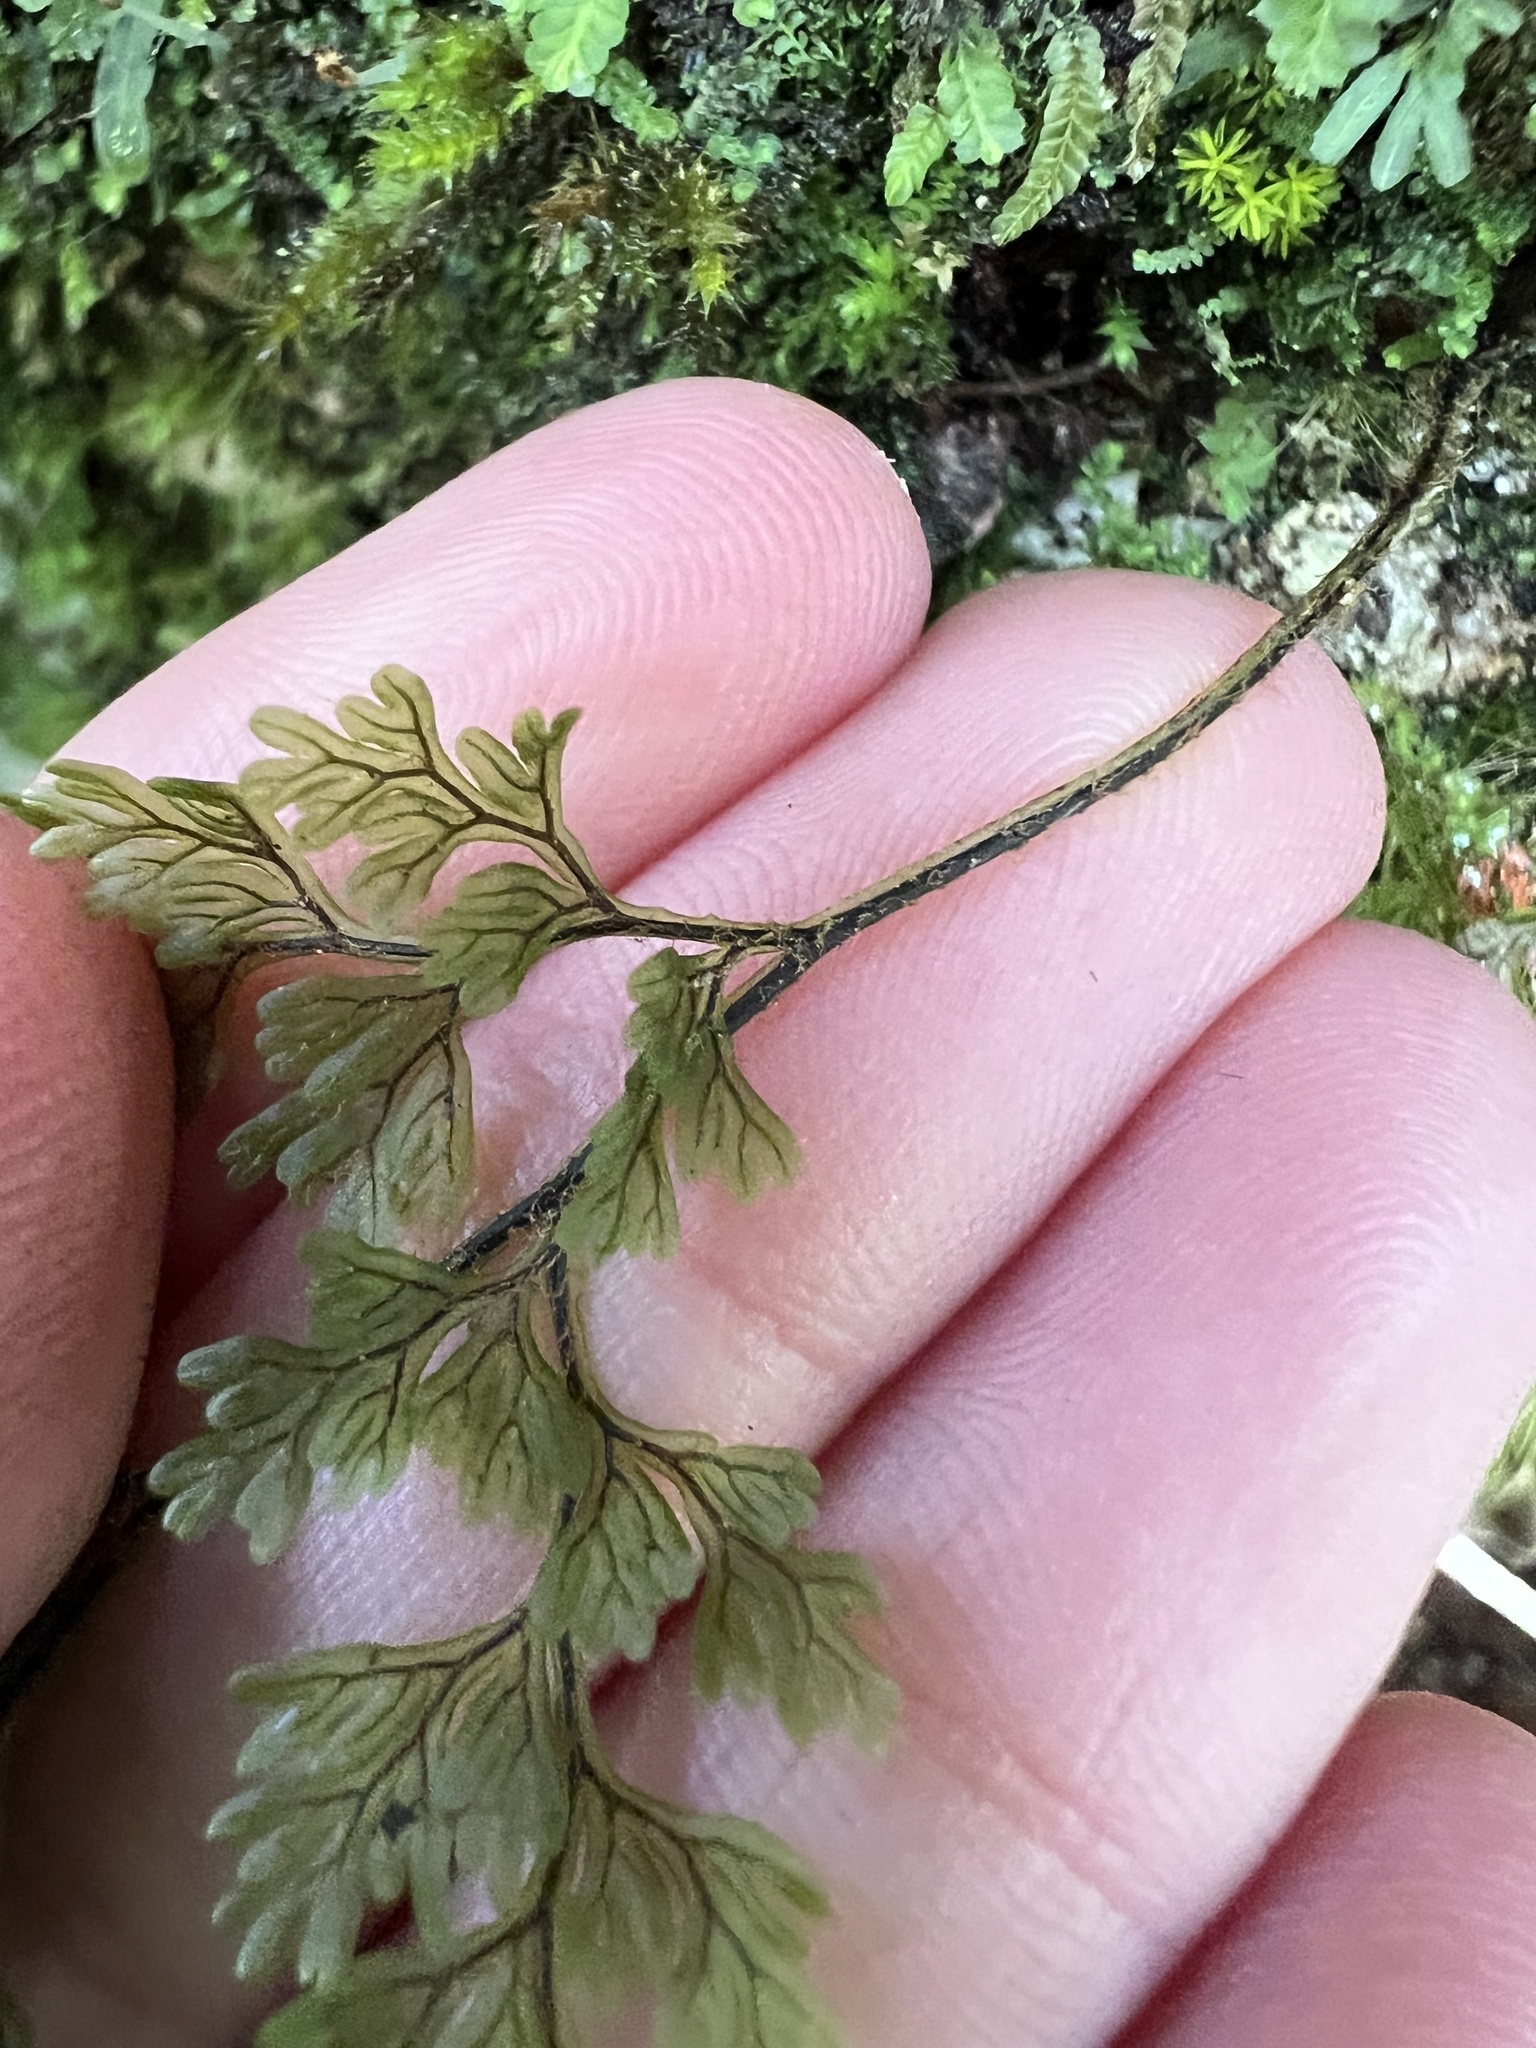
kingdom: Plantae
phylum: Tracheophyta
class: Polypodiopsida
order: Hymenophyllales
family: Hymenophyllaceae
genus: Hymenophyllum
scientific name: Hymenophyllum villosum
